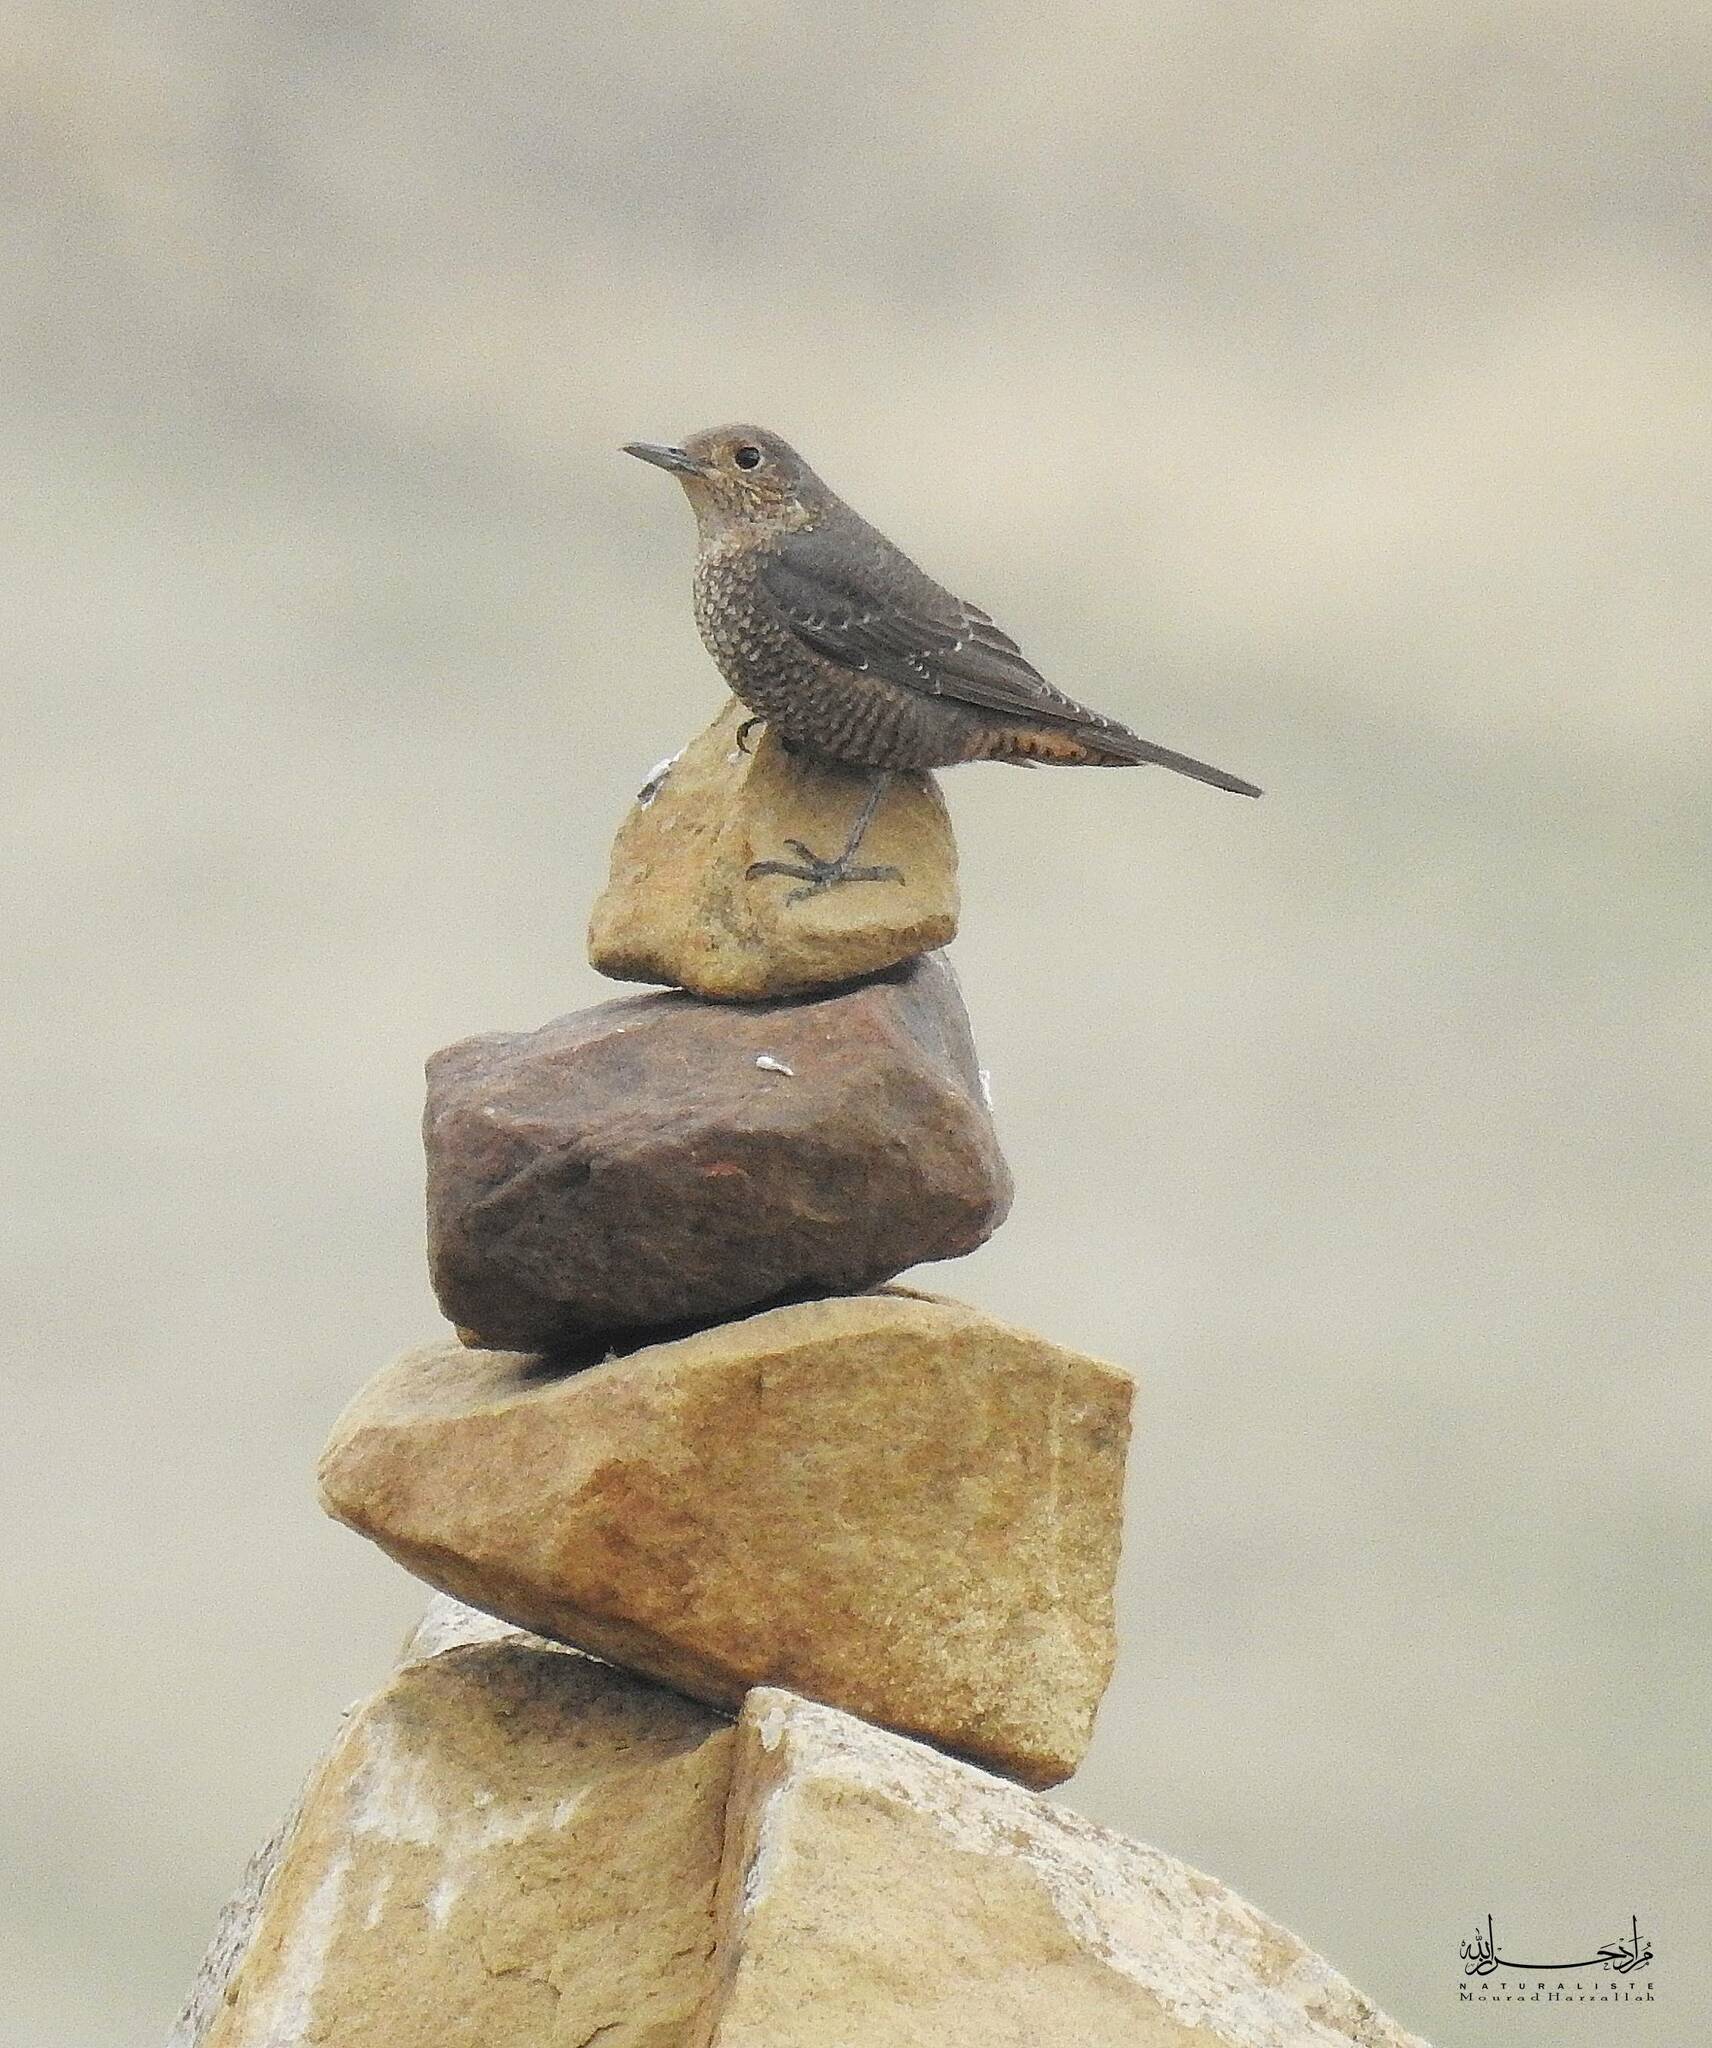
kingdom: Animalia
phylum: Chordata
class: Aves
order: Passeriformes
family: Muscicapidae
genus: Monticola
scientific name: Monticola saxatilis
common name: Rufous-tailed rock thrush
